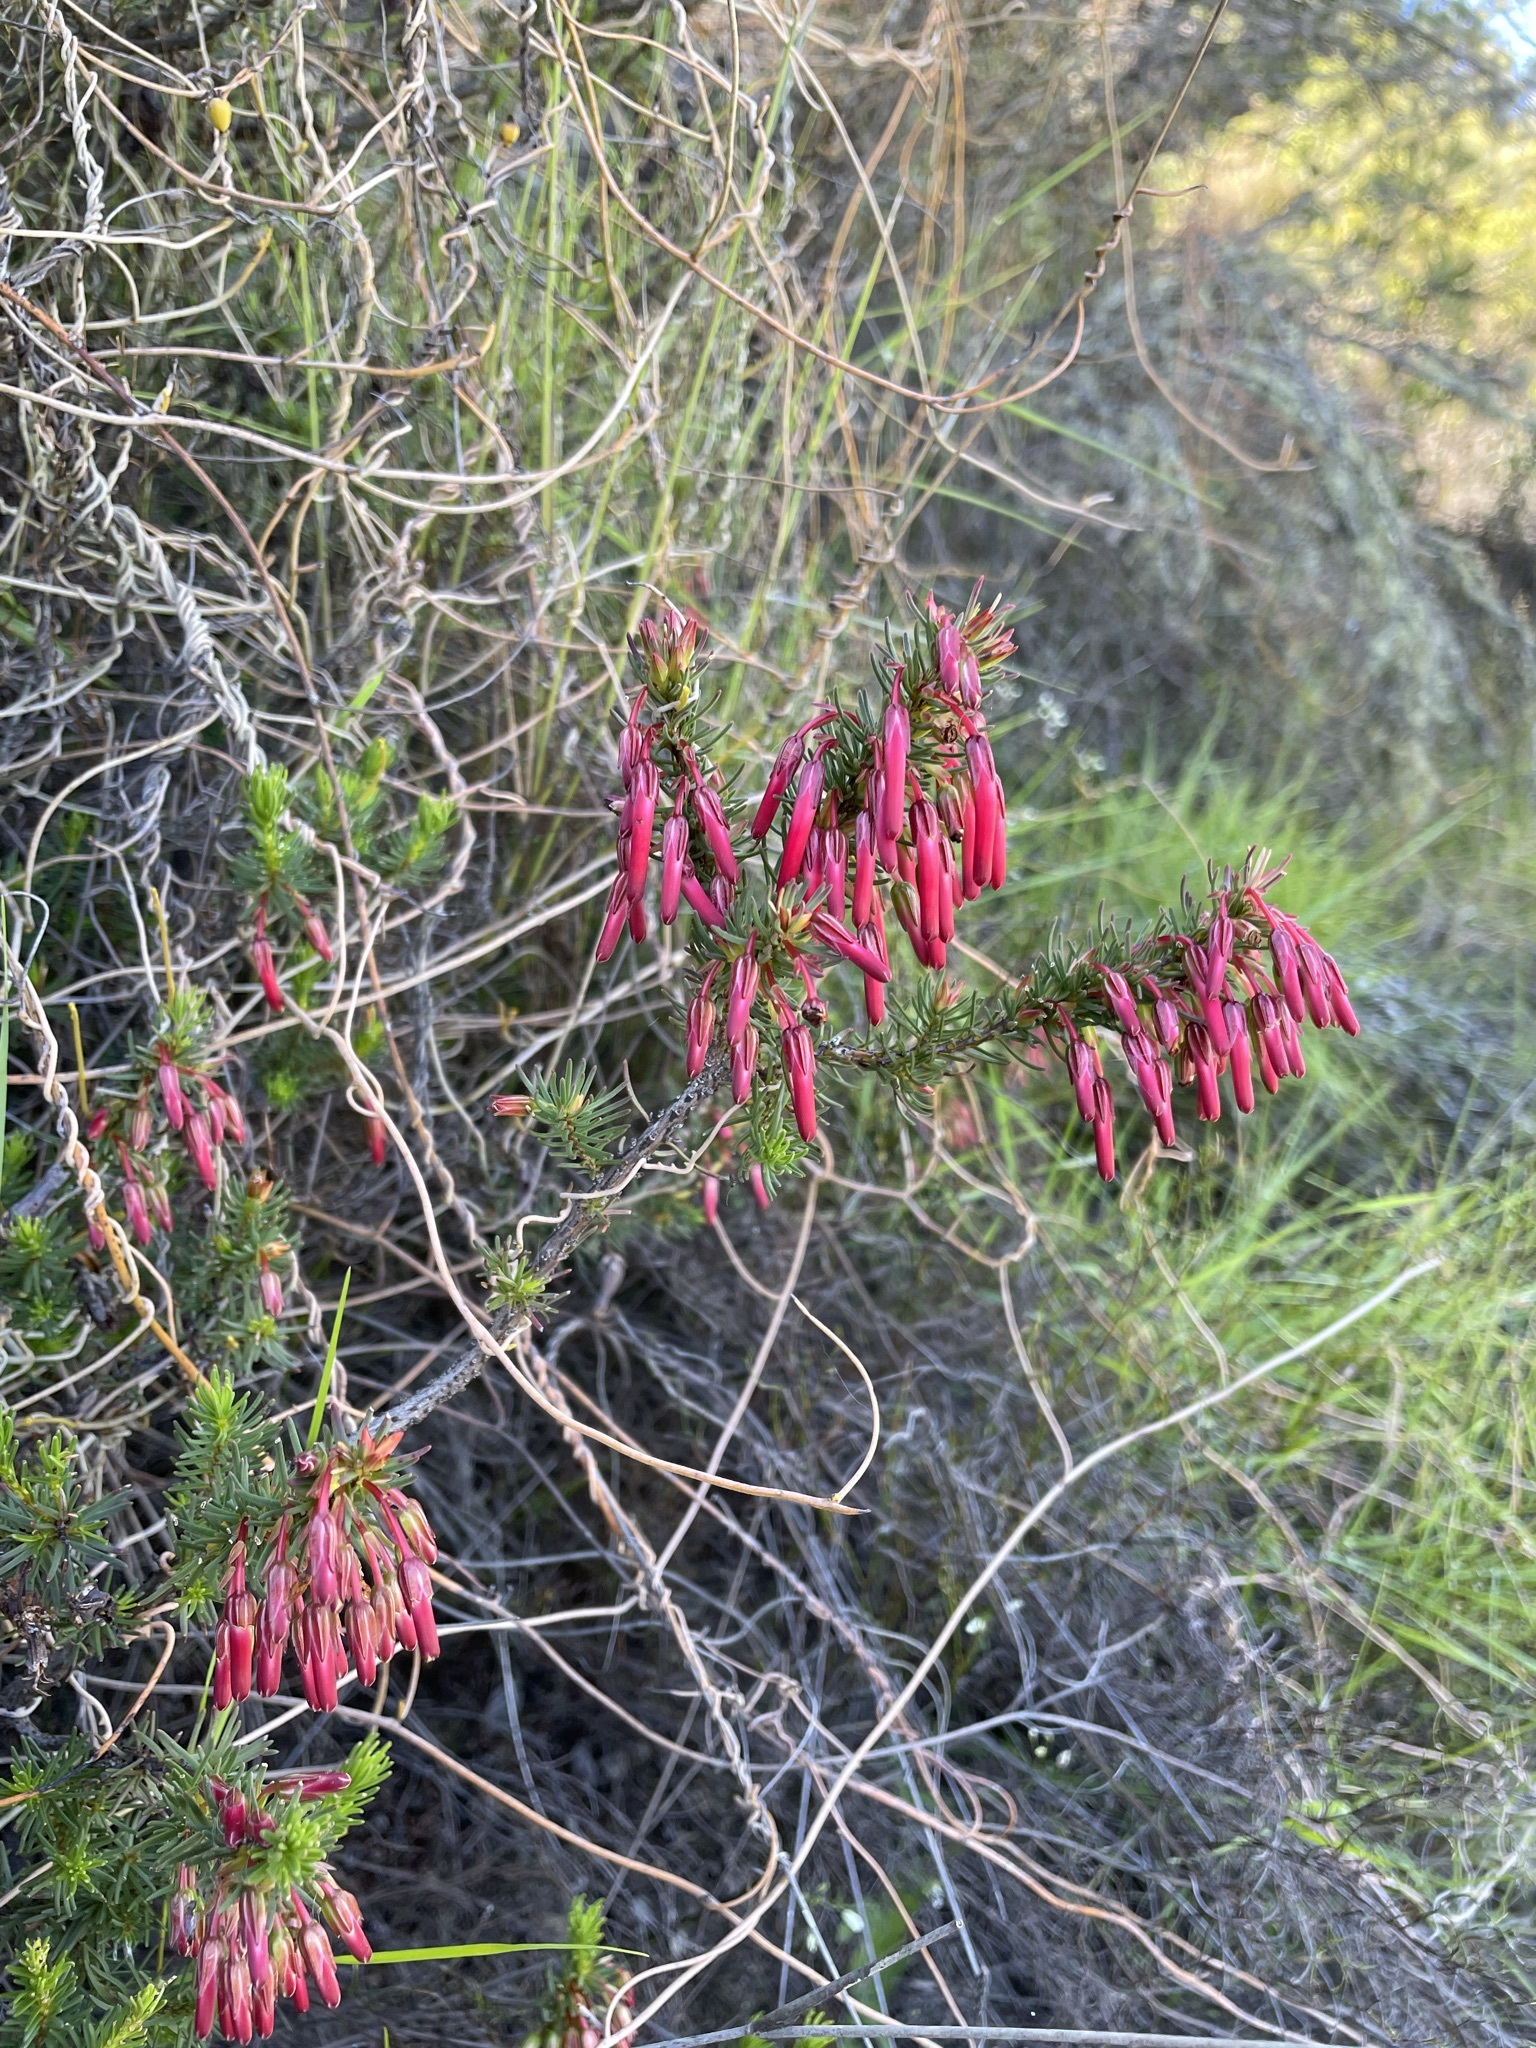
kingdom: Plantae
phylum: Tracheophyta
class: Magnoliopsida
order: Ericales
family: Ericaceae
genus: Erica
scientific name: Erica plukenetii
